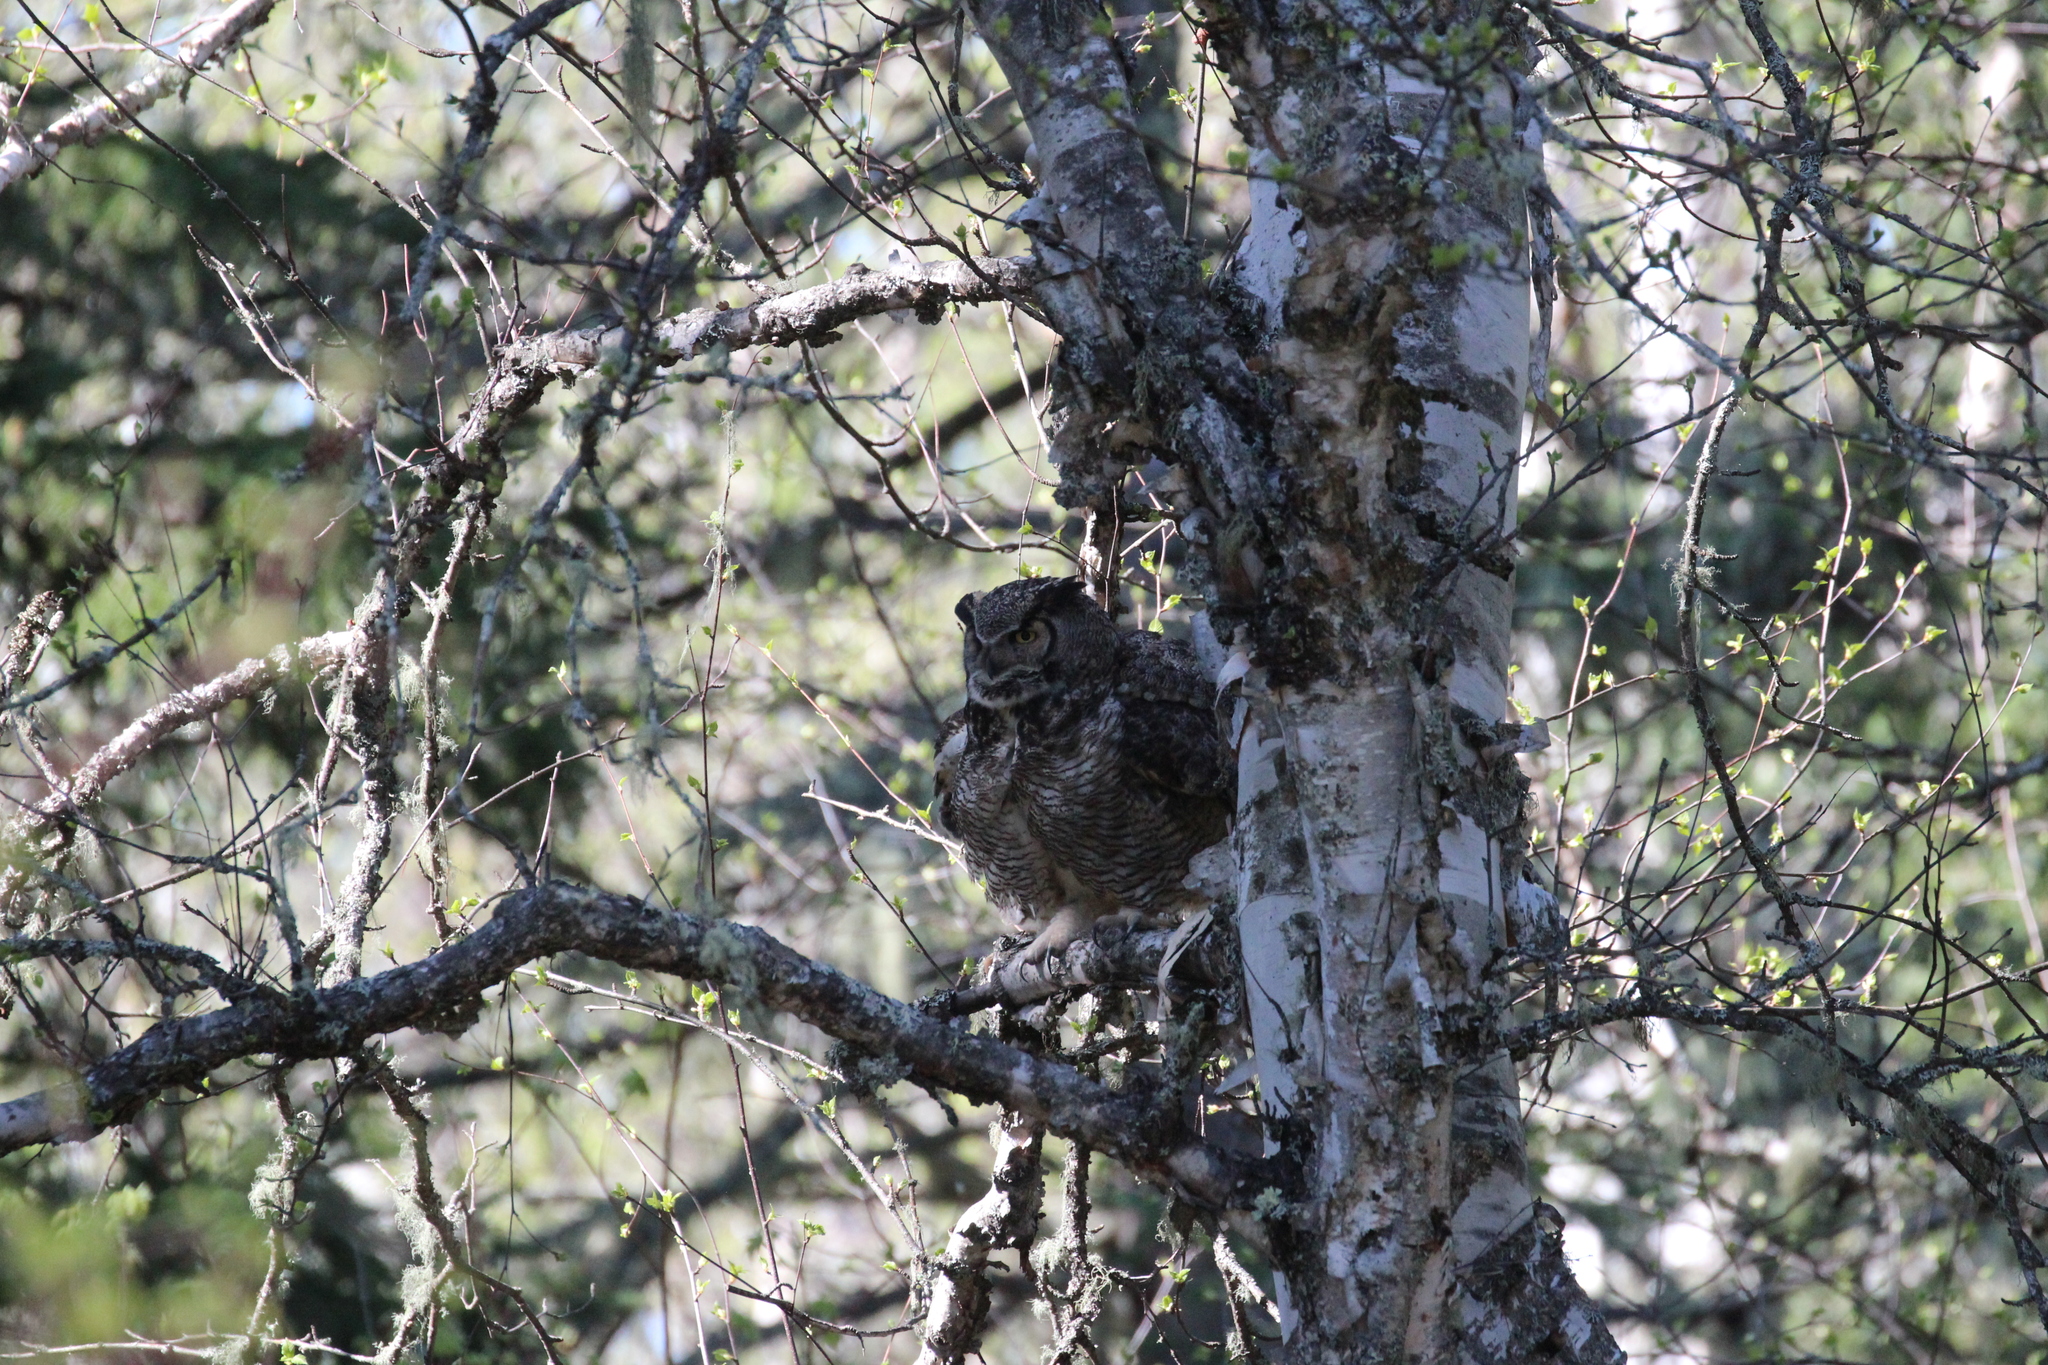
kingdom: Animalia
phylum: Chordata
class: Aves
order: Strigiformes
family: Strigidae
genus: Bubo
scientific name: Bubo virginianus
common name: Great horned owl
